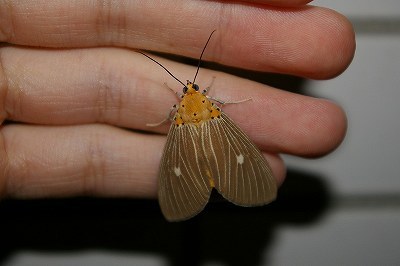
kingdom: Animalia
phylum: Arthropoda
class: Insecta
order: Lepidoptera
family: Erebidae
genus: Asota
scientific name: Asota caricae
